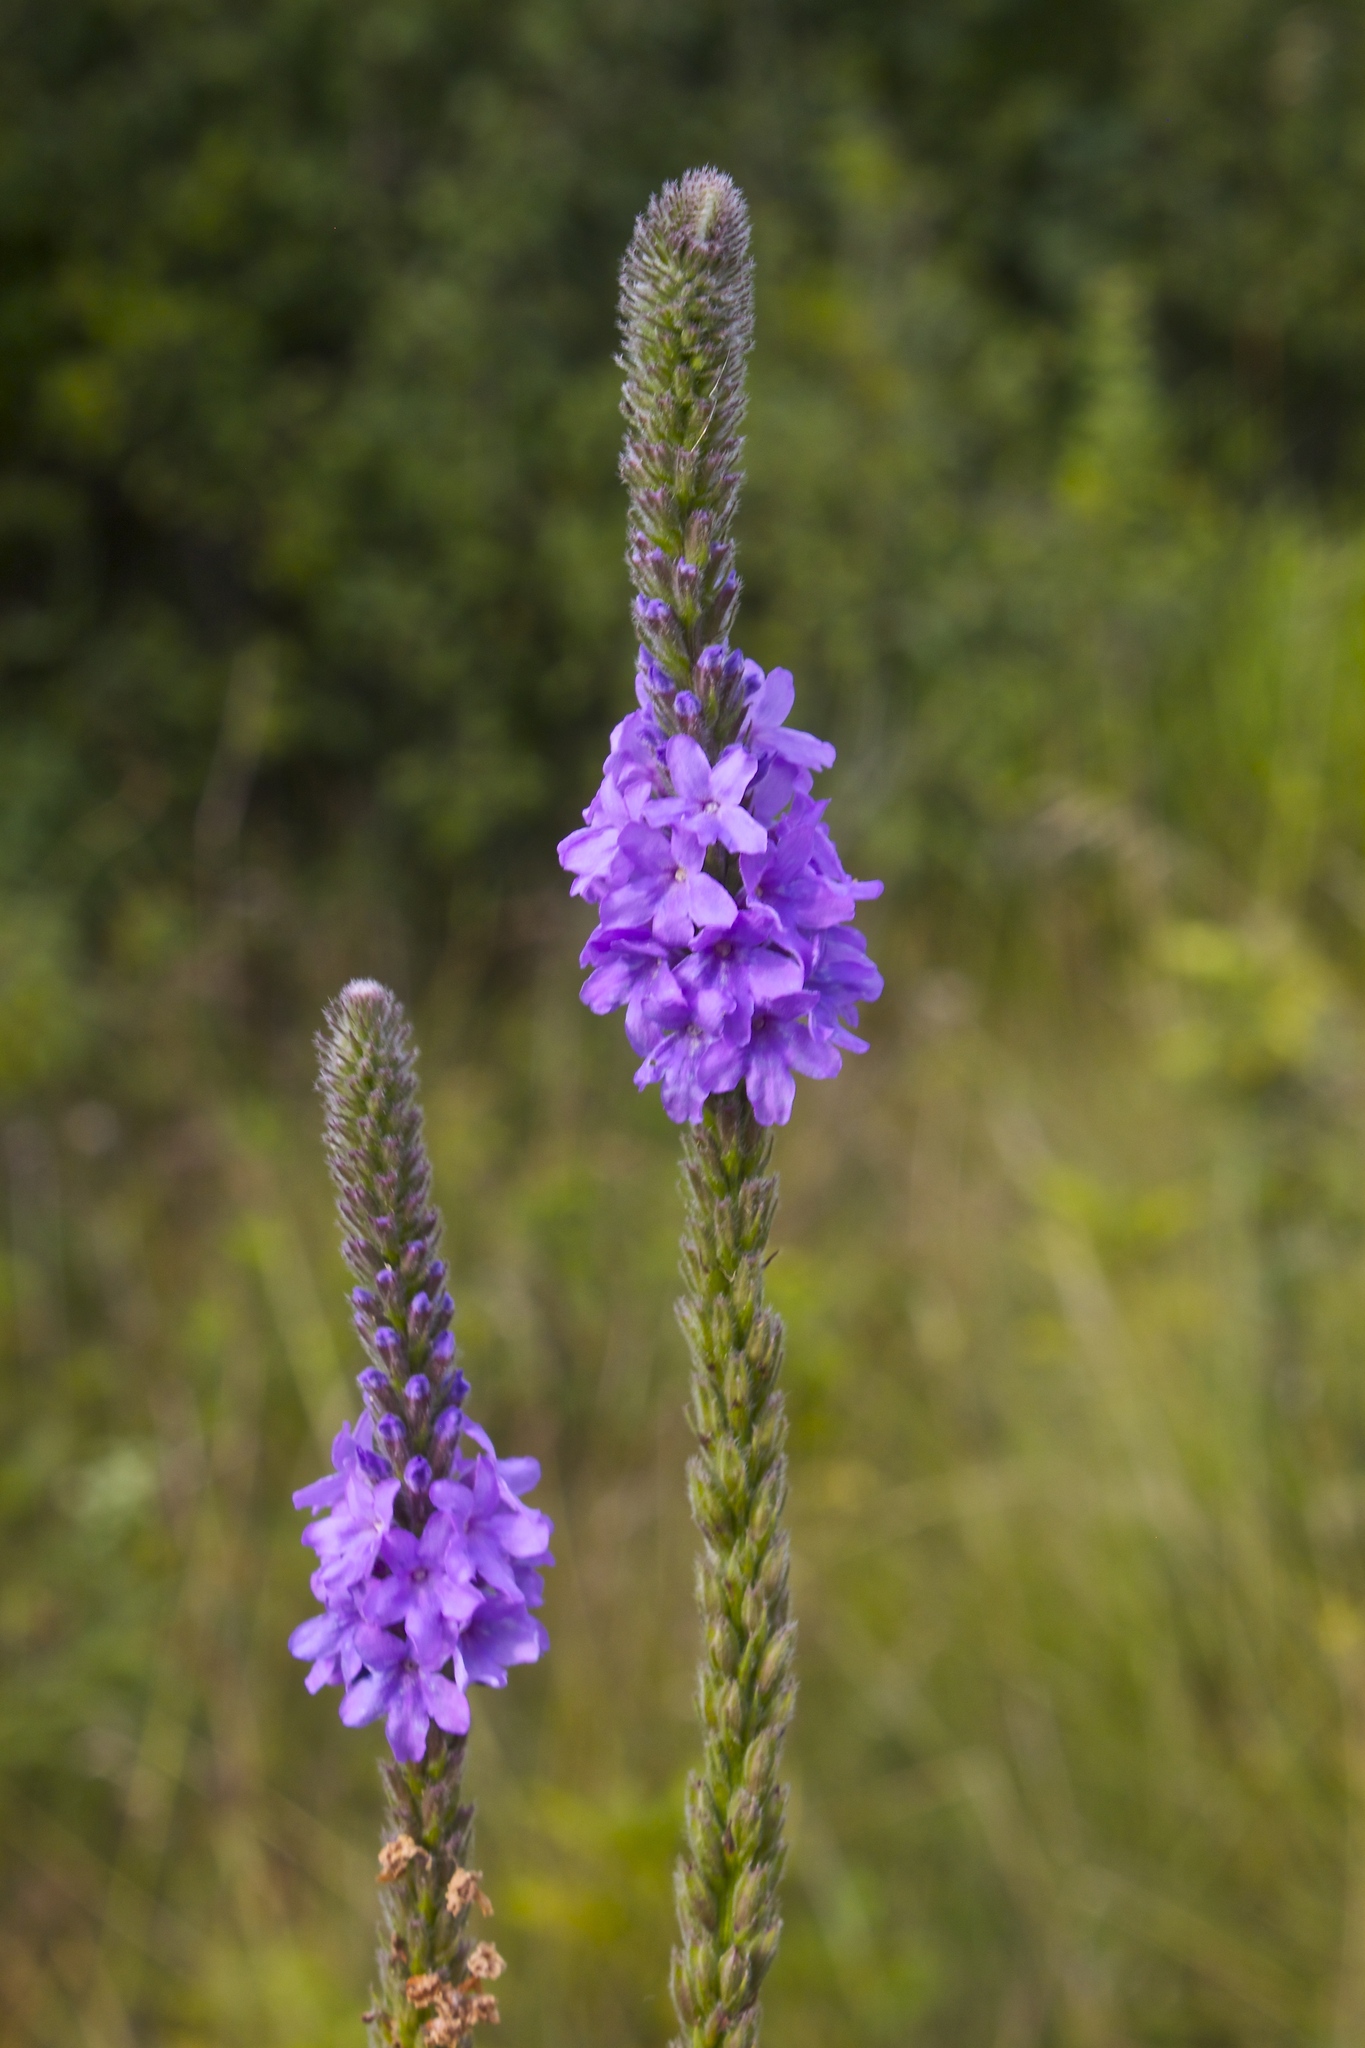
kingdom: Plantae
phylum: Tracheophyta
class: Magnoliopsida
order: Lamiales
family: Verbenaceae
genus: Verbena
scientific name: Verbena stricta
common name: Hoary vervain
